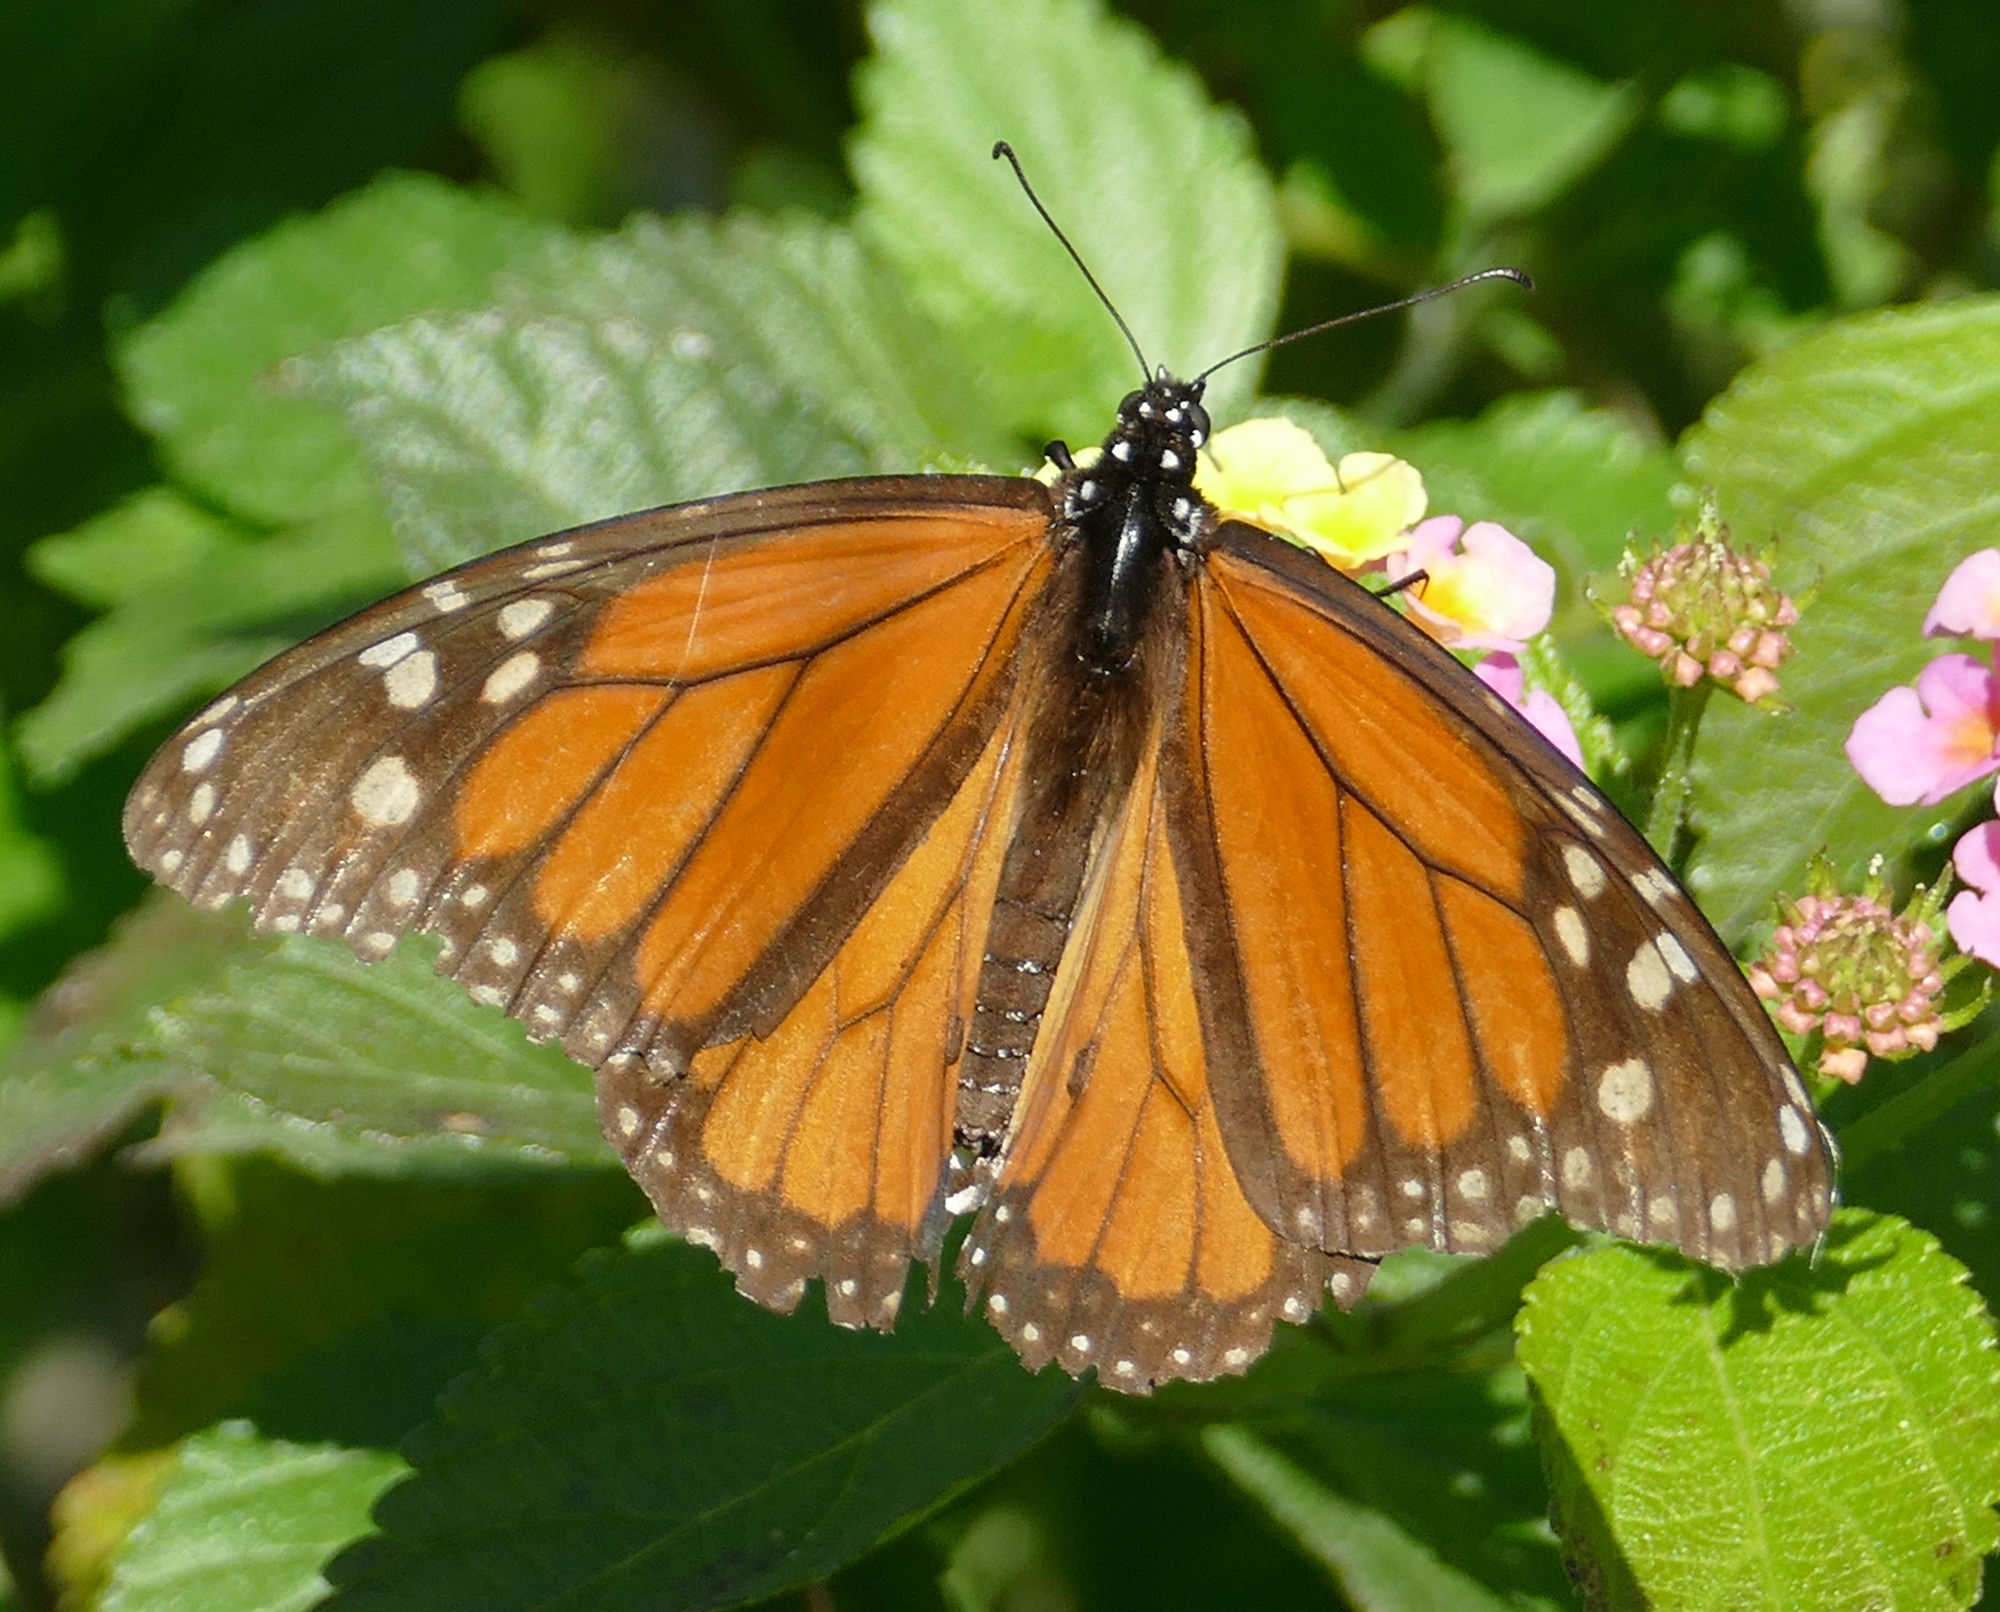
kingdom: Animalia
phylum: Arthropoda
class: Insecta
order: Lepidoptera
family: Nymphalidae
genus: Danaus
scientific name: Danaus plexippus
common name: Monarch
